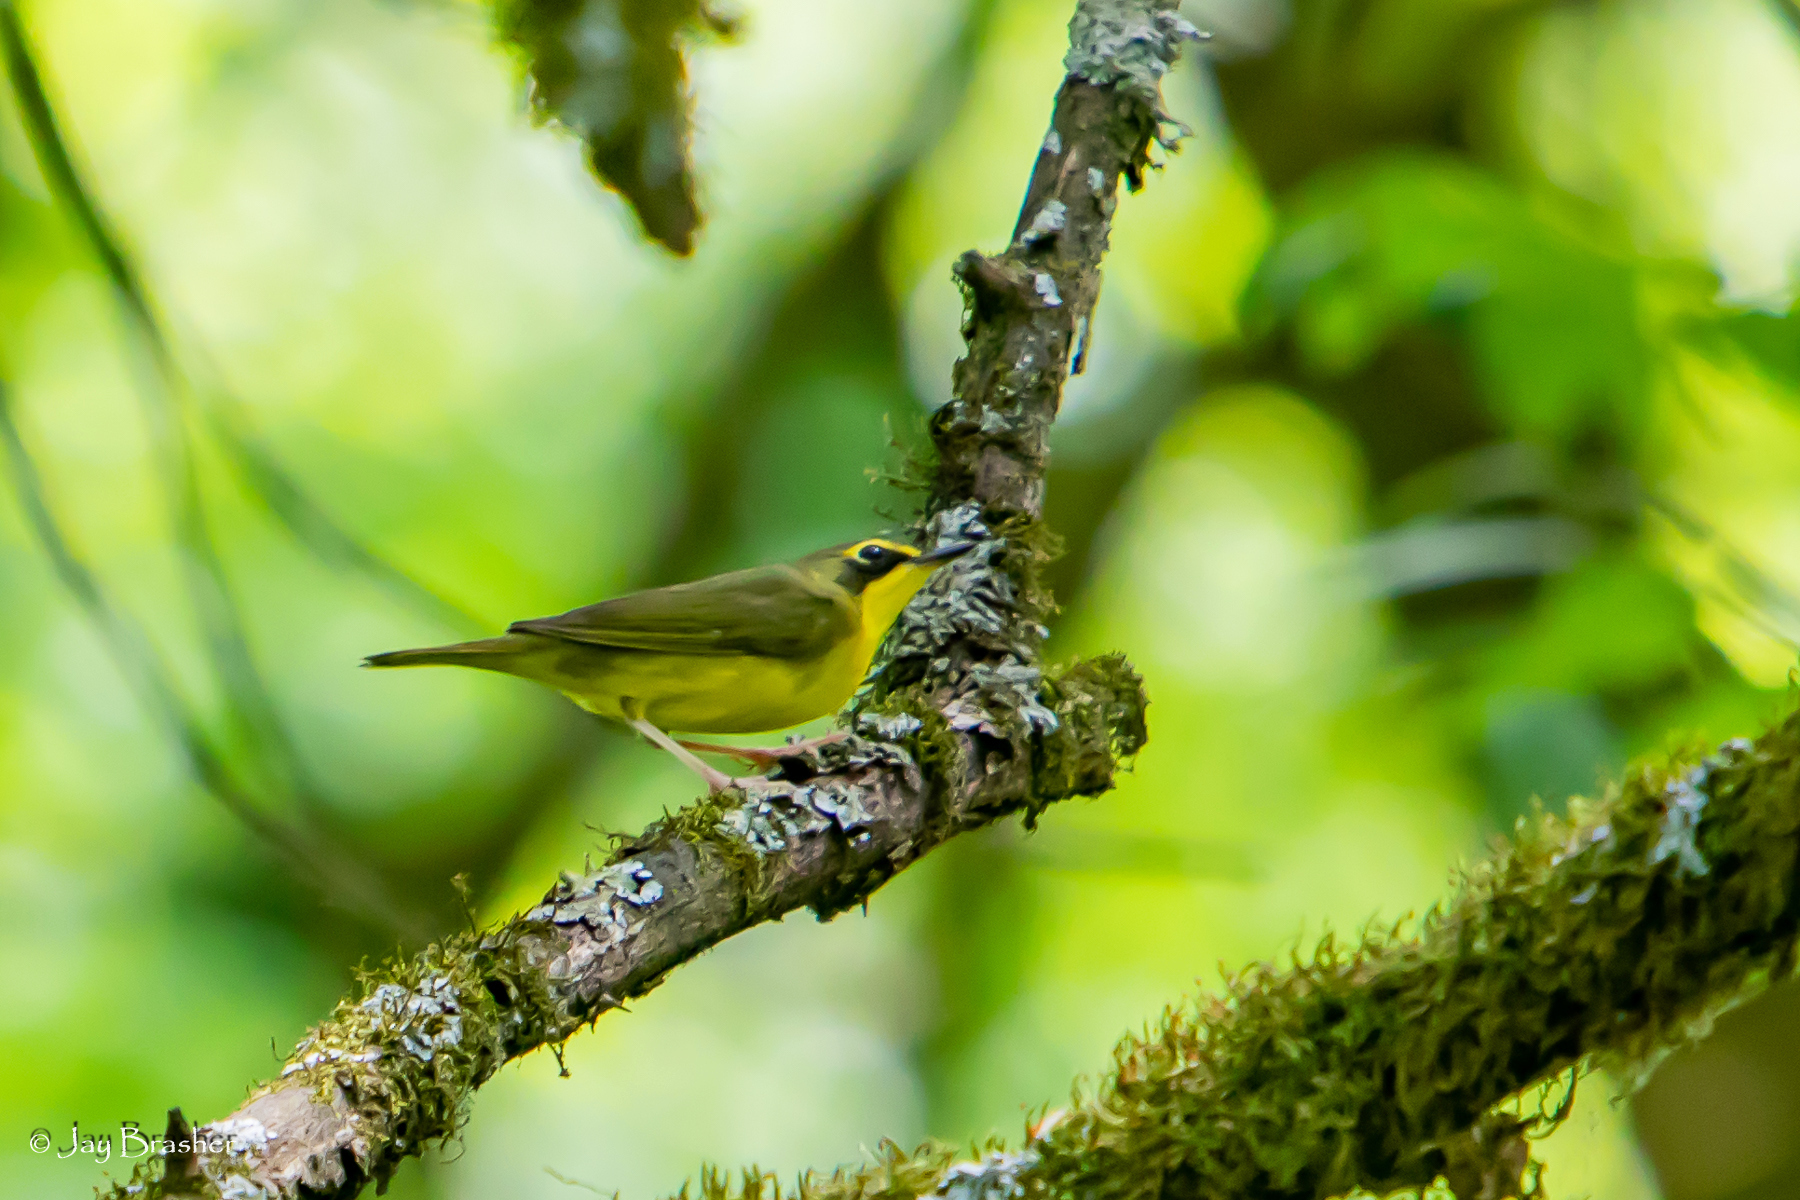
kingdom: Animalia
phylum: Chordata
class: Aves
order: Passeriformes
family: Parulidae
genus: Geothlypis
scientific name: Geothlypis formosa
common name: Kentucky warbler
